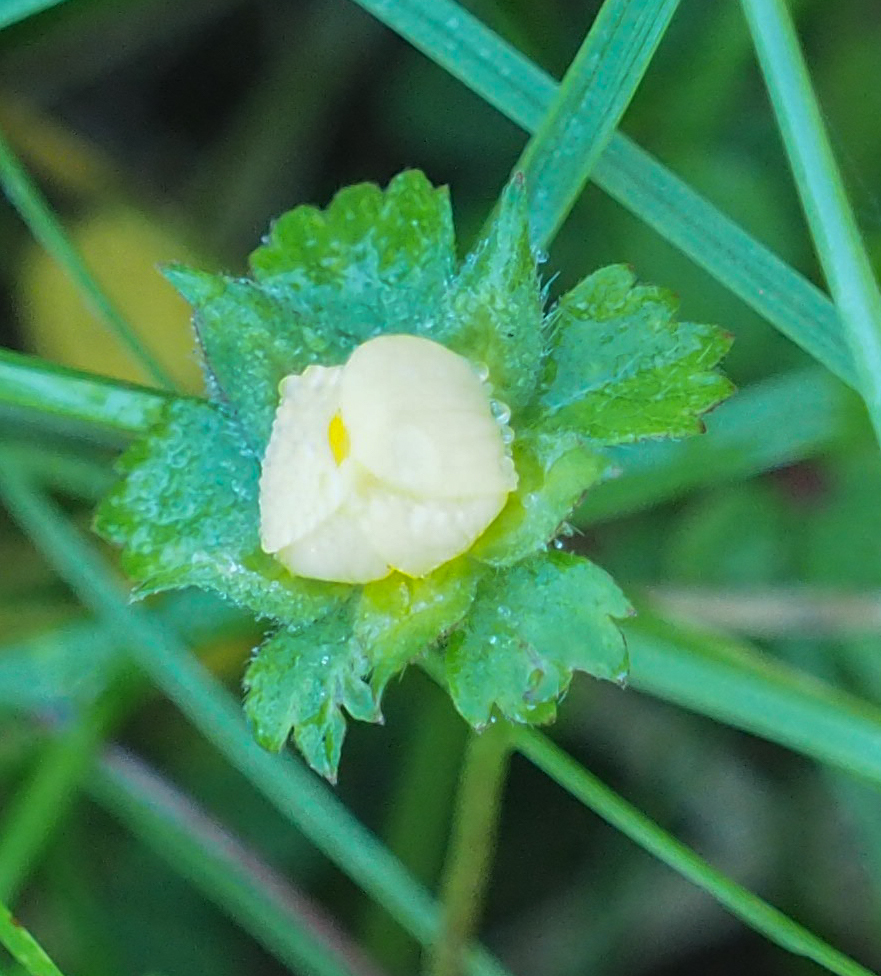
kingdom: Plantae
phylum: Tracheophyta
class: Magnoliopsida
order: Rosales
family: Rosaceae
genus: Potentilla
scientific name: Potentilla indica
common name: Yellow-flowered strawberry
